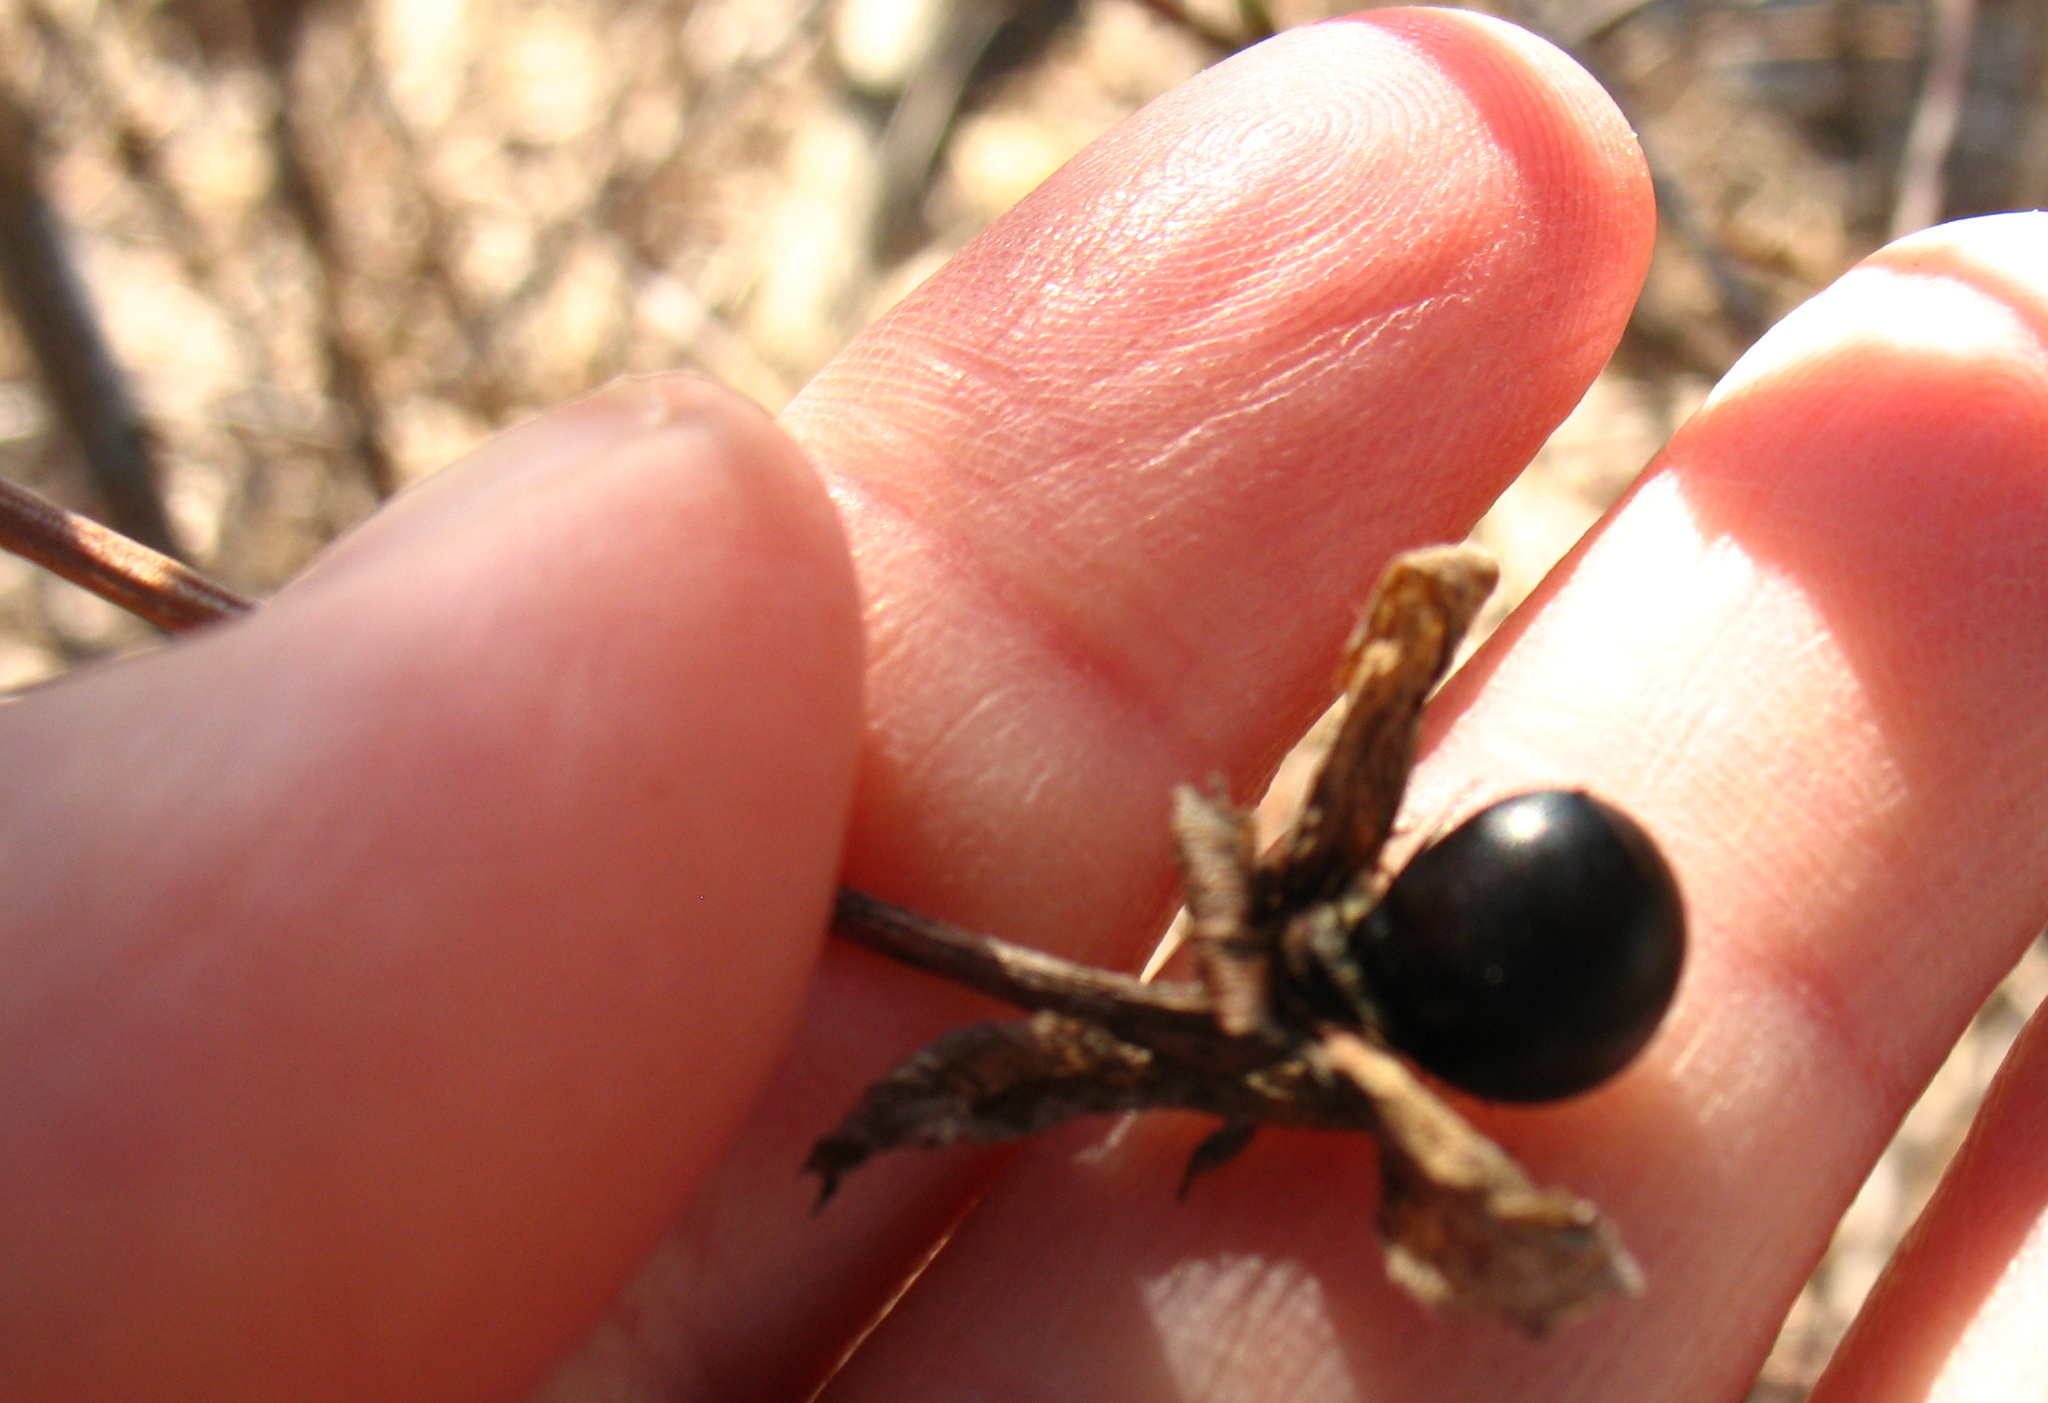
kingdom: Plantae
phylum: Tracheophyta
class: Magnoliopsida
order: Rosales
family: Rosaceae
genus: Rhodotypos
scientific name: Rhodotypos scandens
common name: Jetbead
